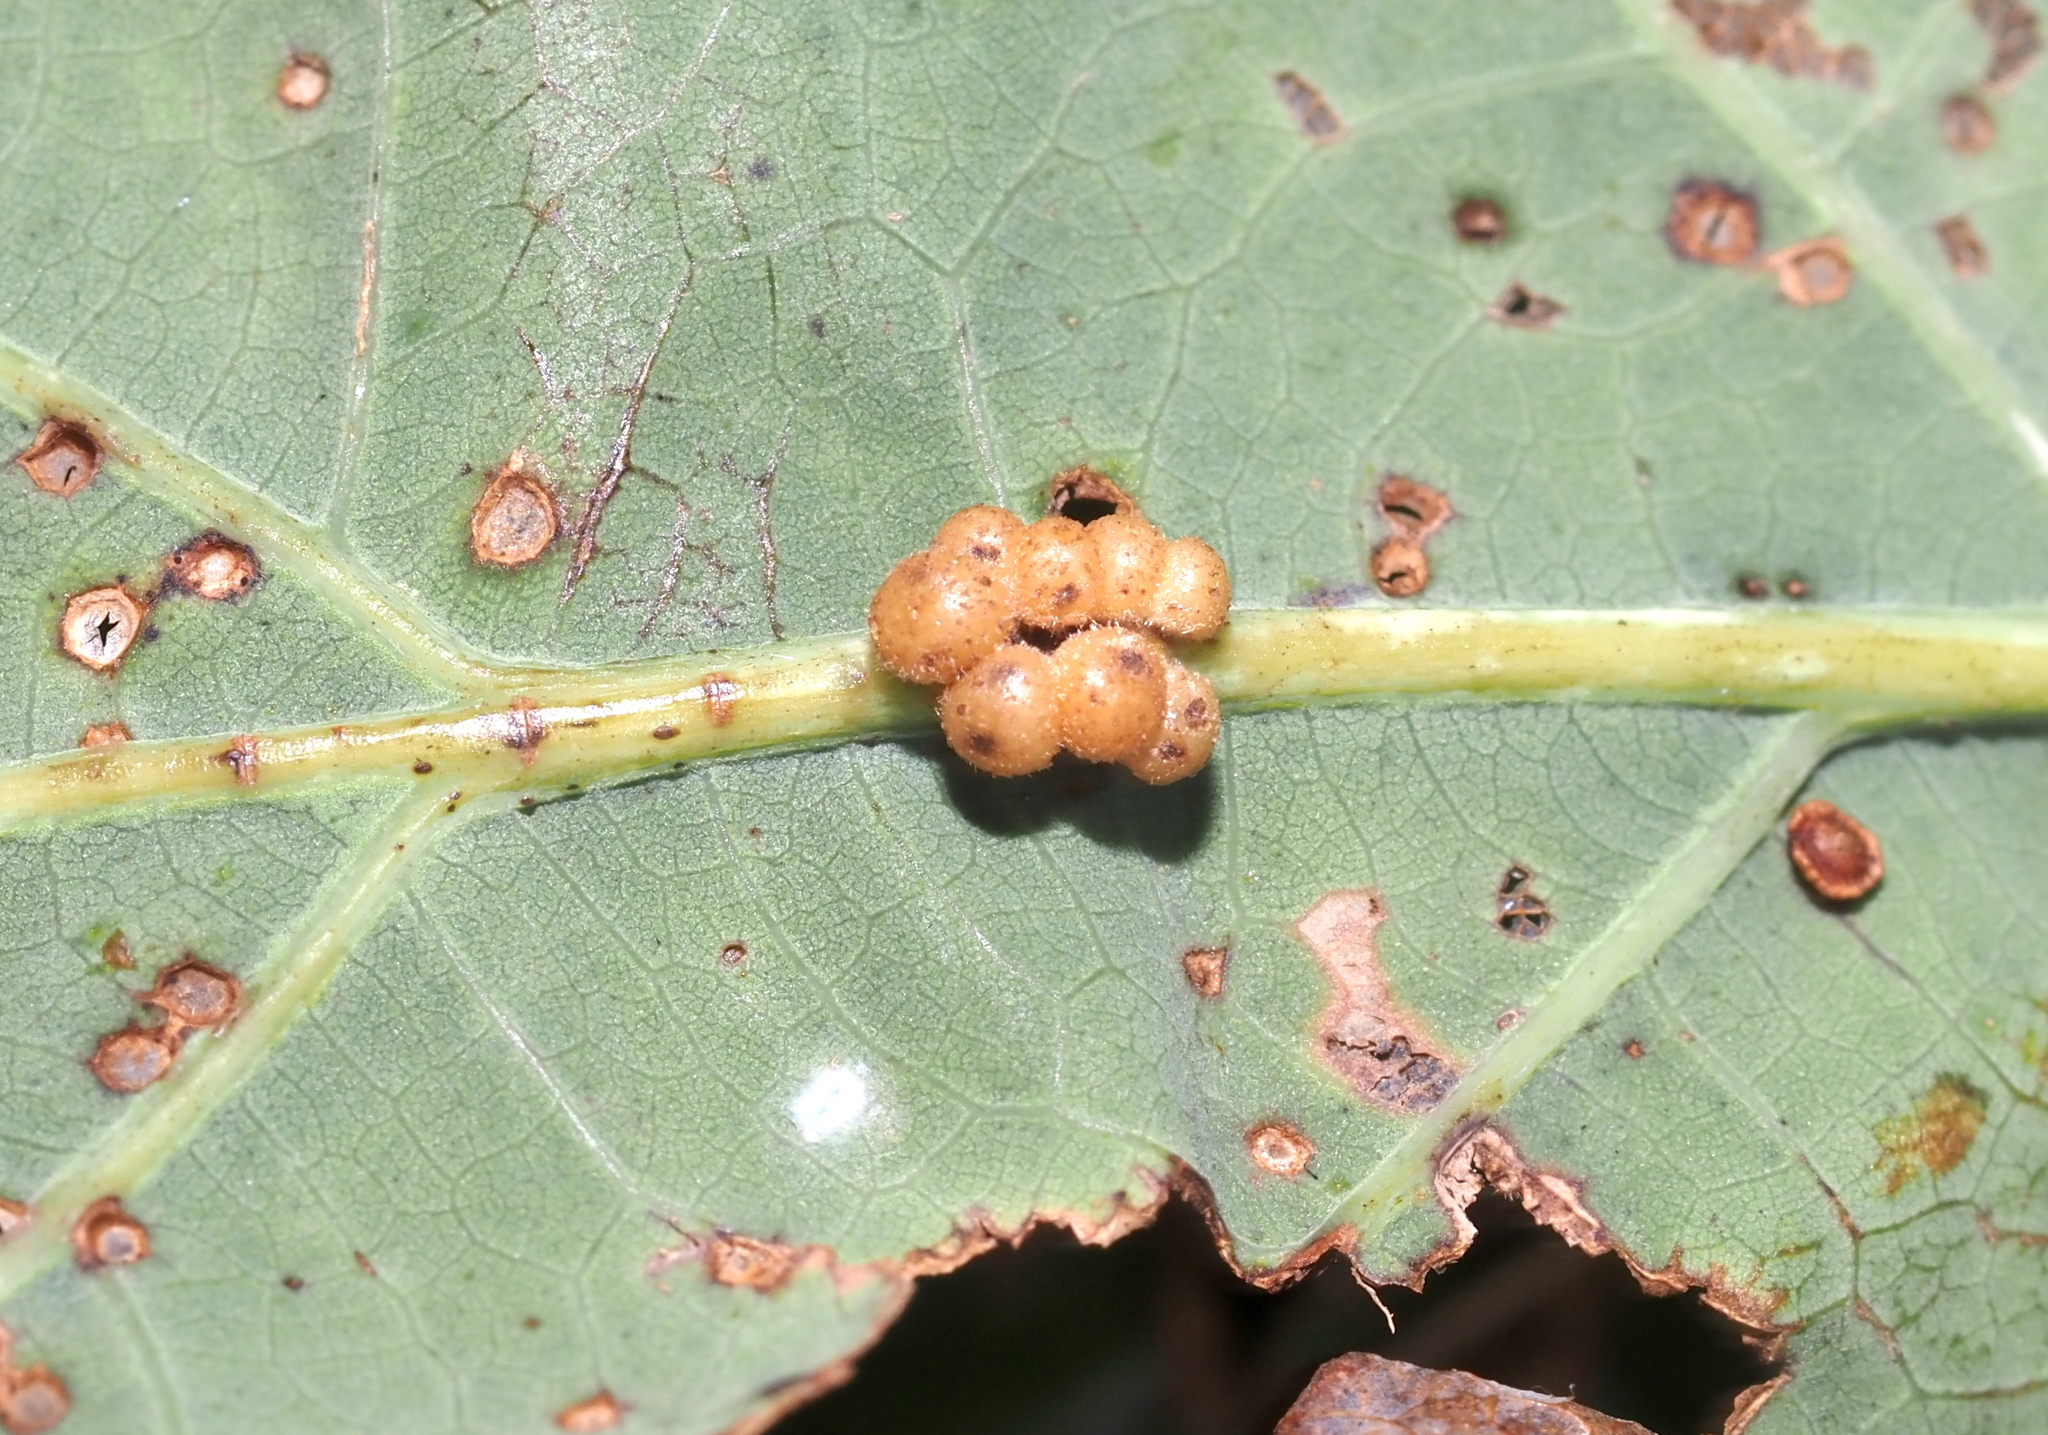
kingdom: Animalia
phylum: Arthropoda
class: Insecta
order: Hymenoptera
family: Cynipidae
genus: Andricus
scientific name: Andricus
